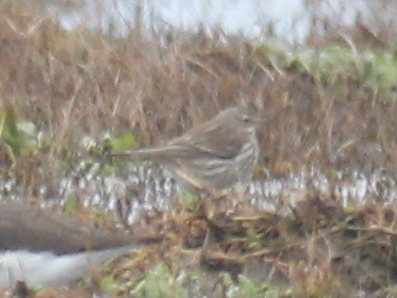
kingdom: Animalia
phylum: Chordata
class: Aves
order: Passeriformes
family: Motacillidae
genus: Anthus
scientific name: Anthus spinoletta
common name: Water pipit
